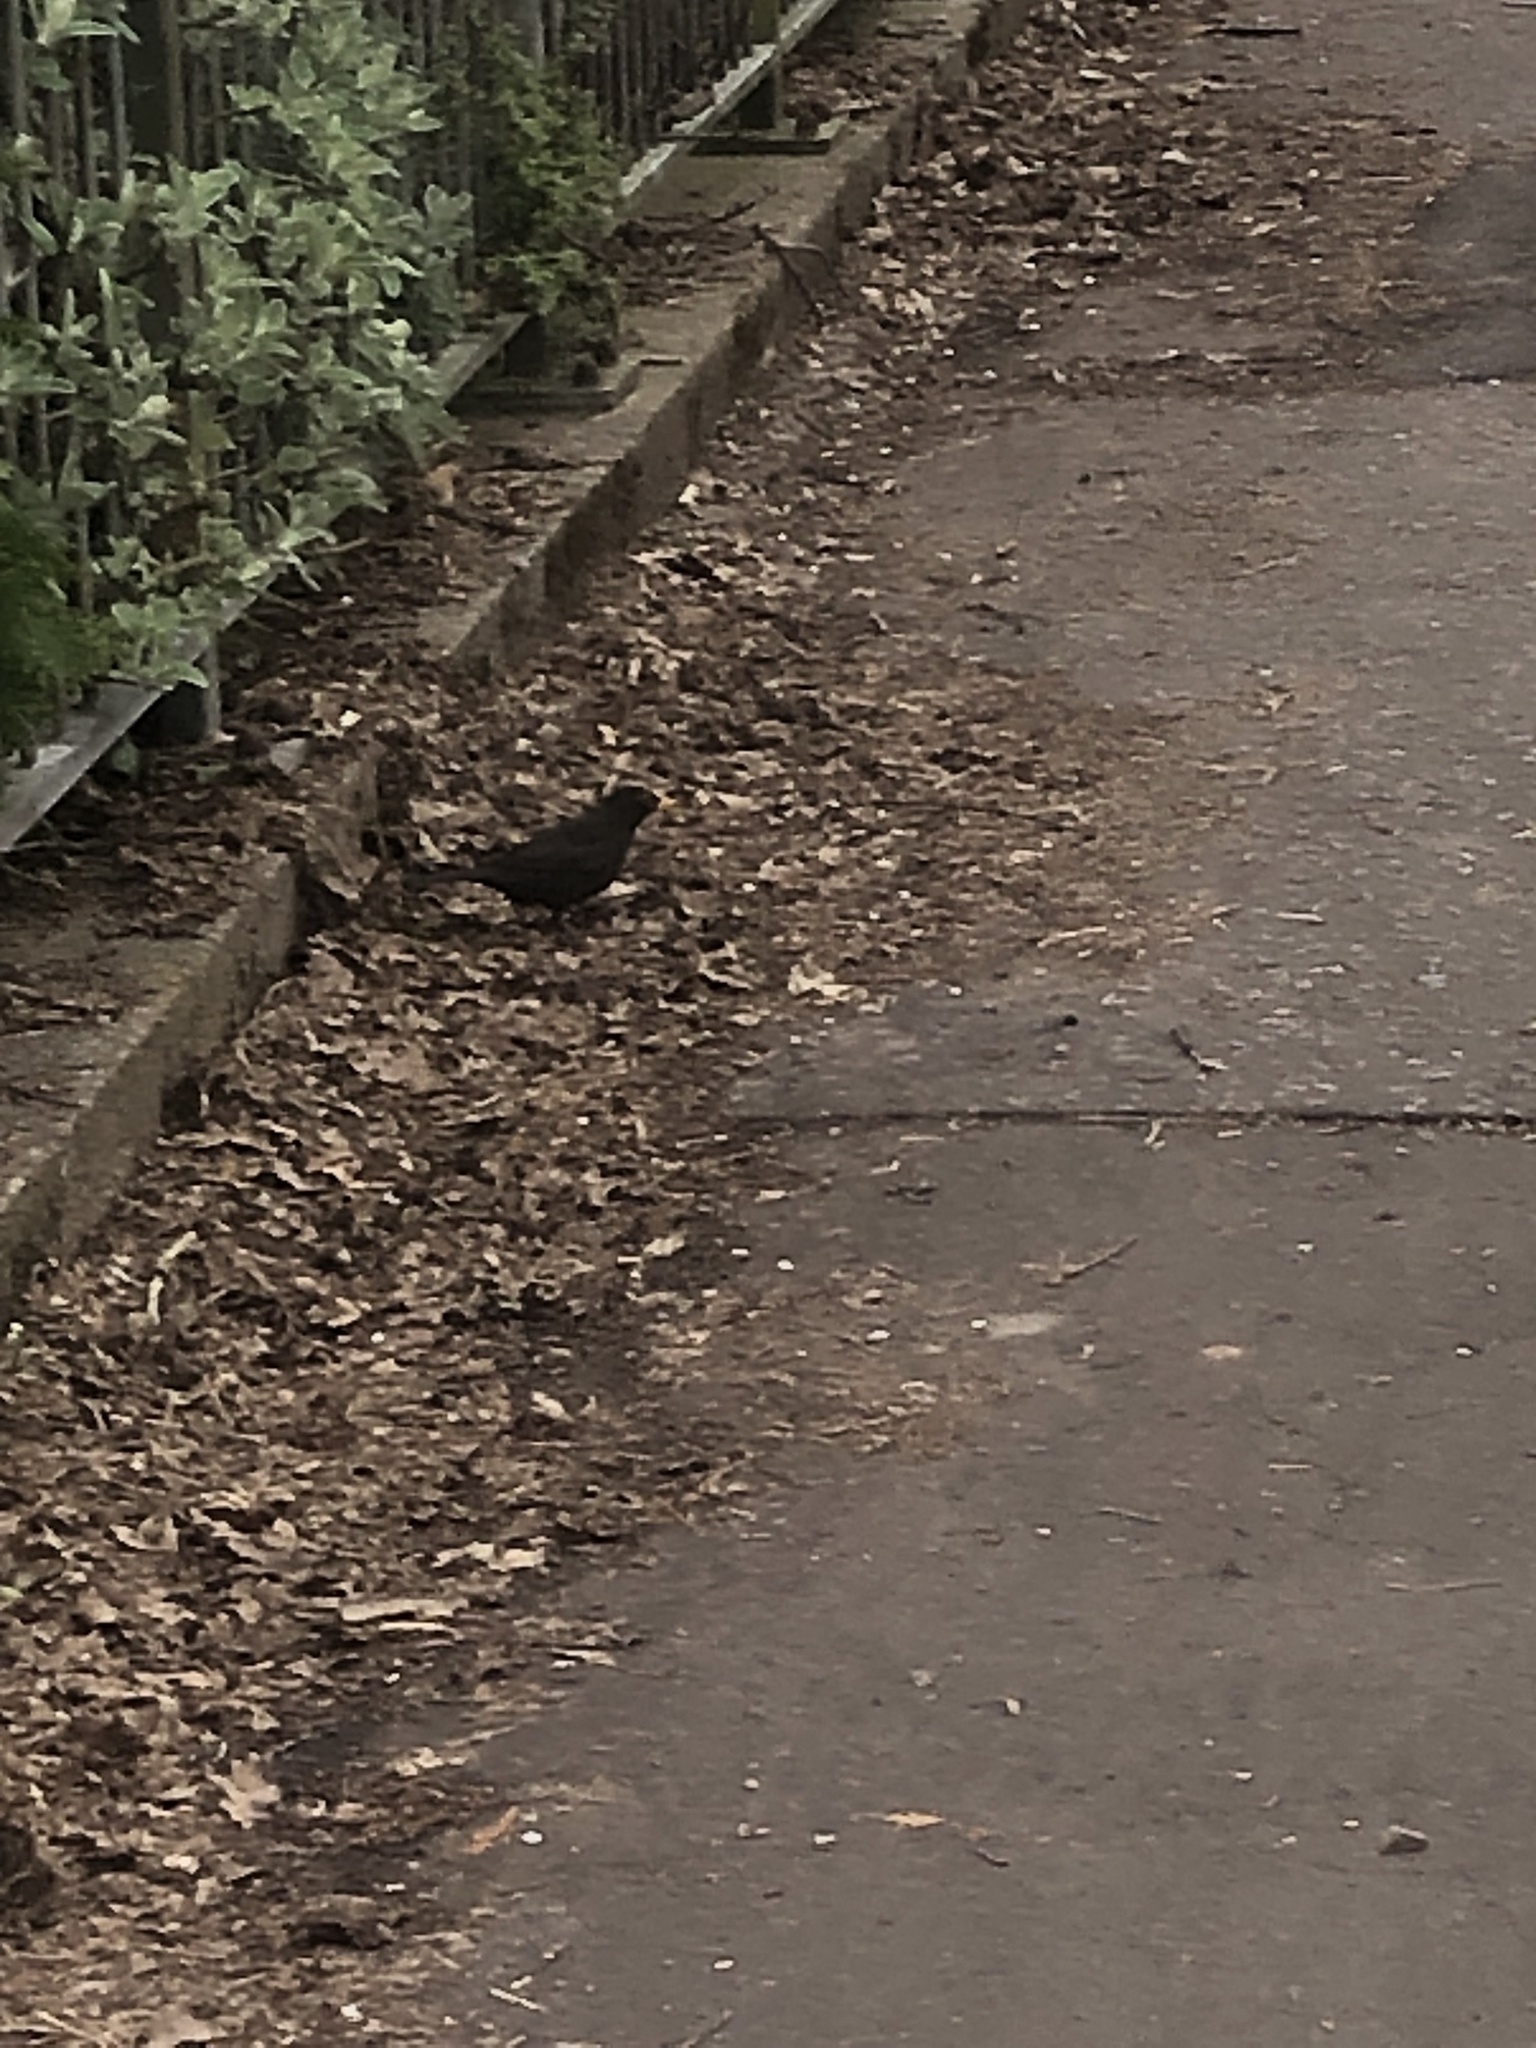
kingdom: Animalia
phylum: Chordata
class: Aves
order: Passeriformes
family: Turdidae
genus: Turdus
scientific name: Turdus merula
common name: Common blackbird
